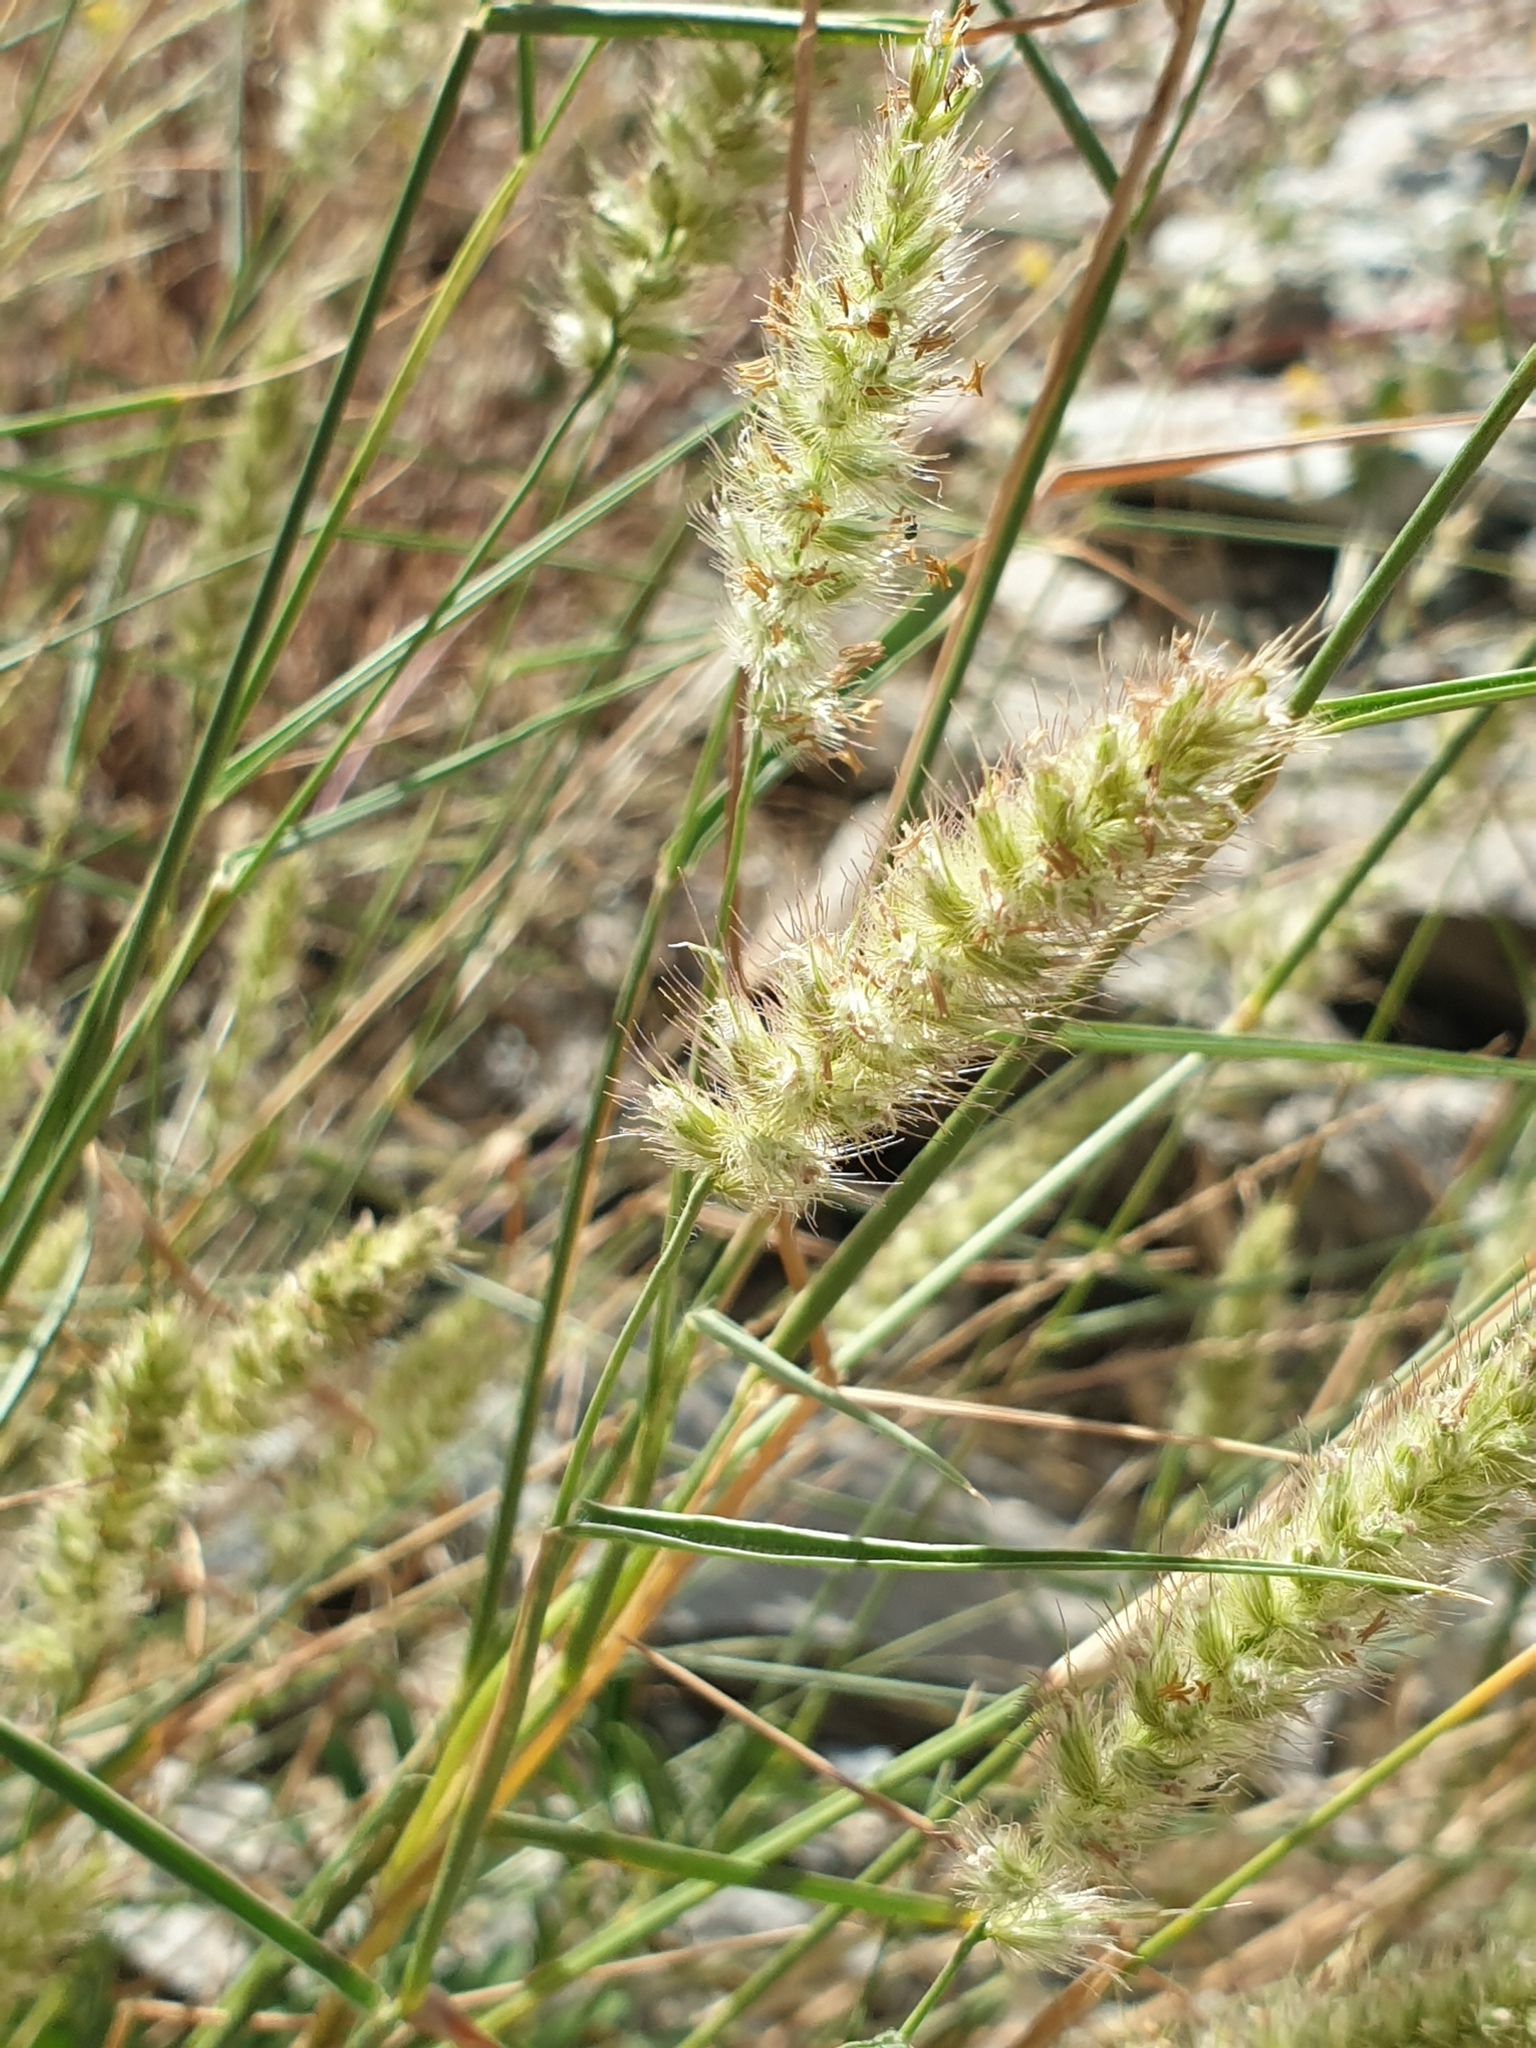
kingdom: Plantae
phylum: Tracheophyta
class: Liliopsida
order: Poales
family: Poaceae
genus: Cenchrus
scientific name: Cenchrus ciliaris
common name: Buffelgrass
